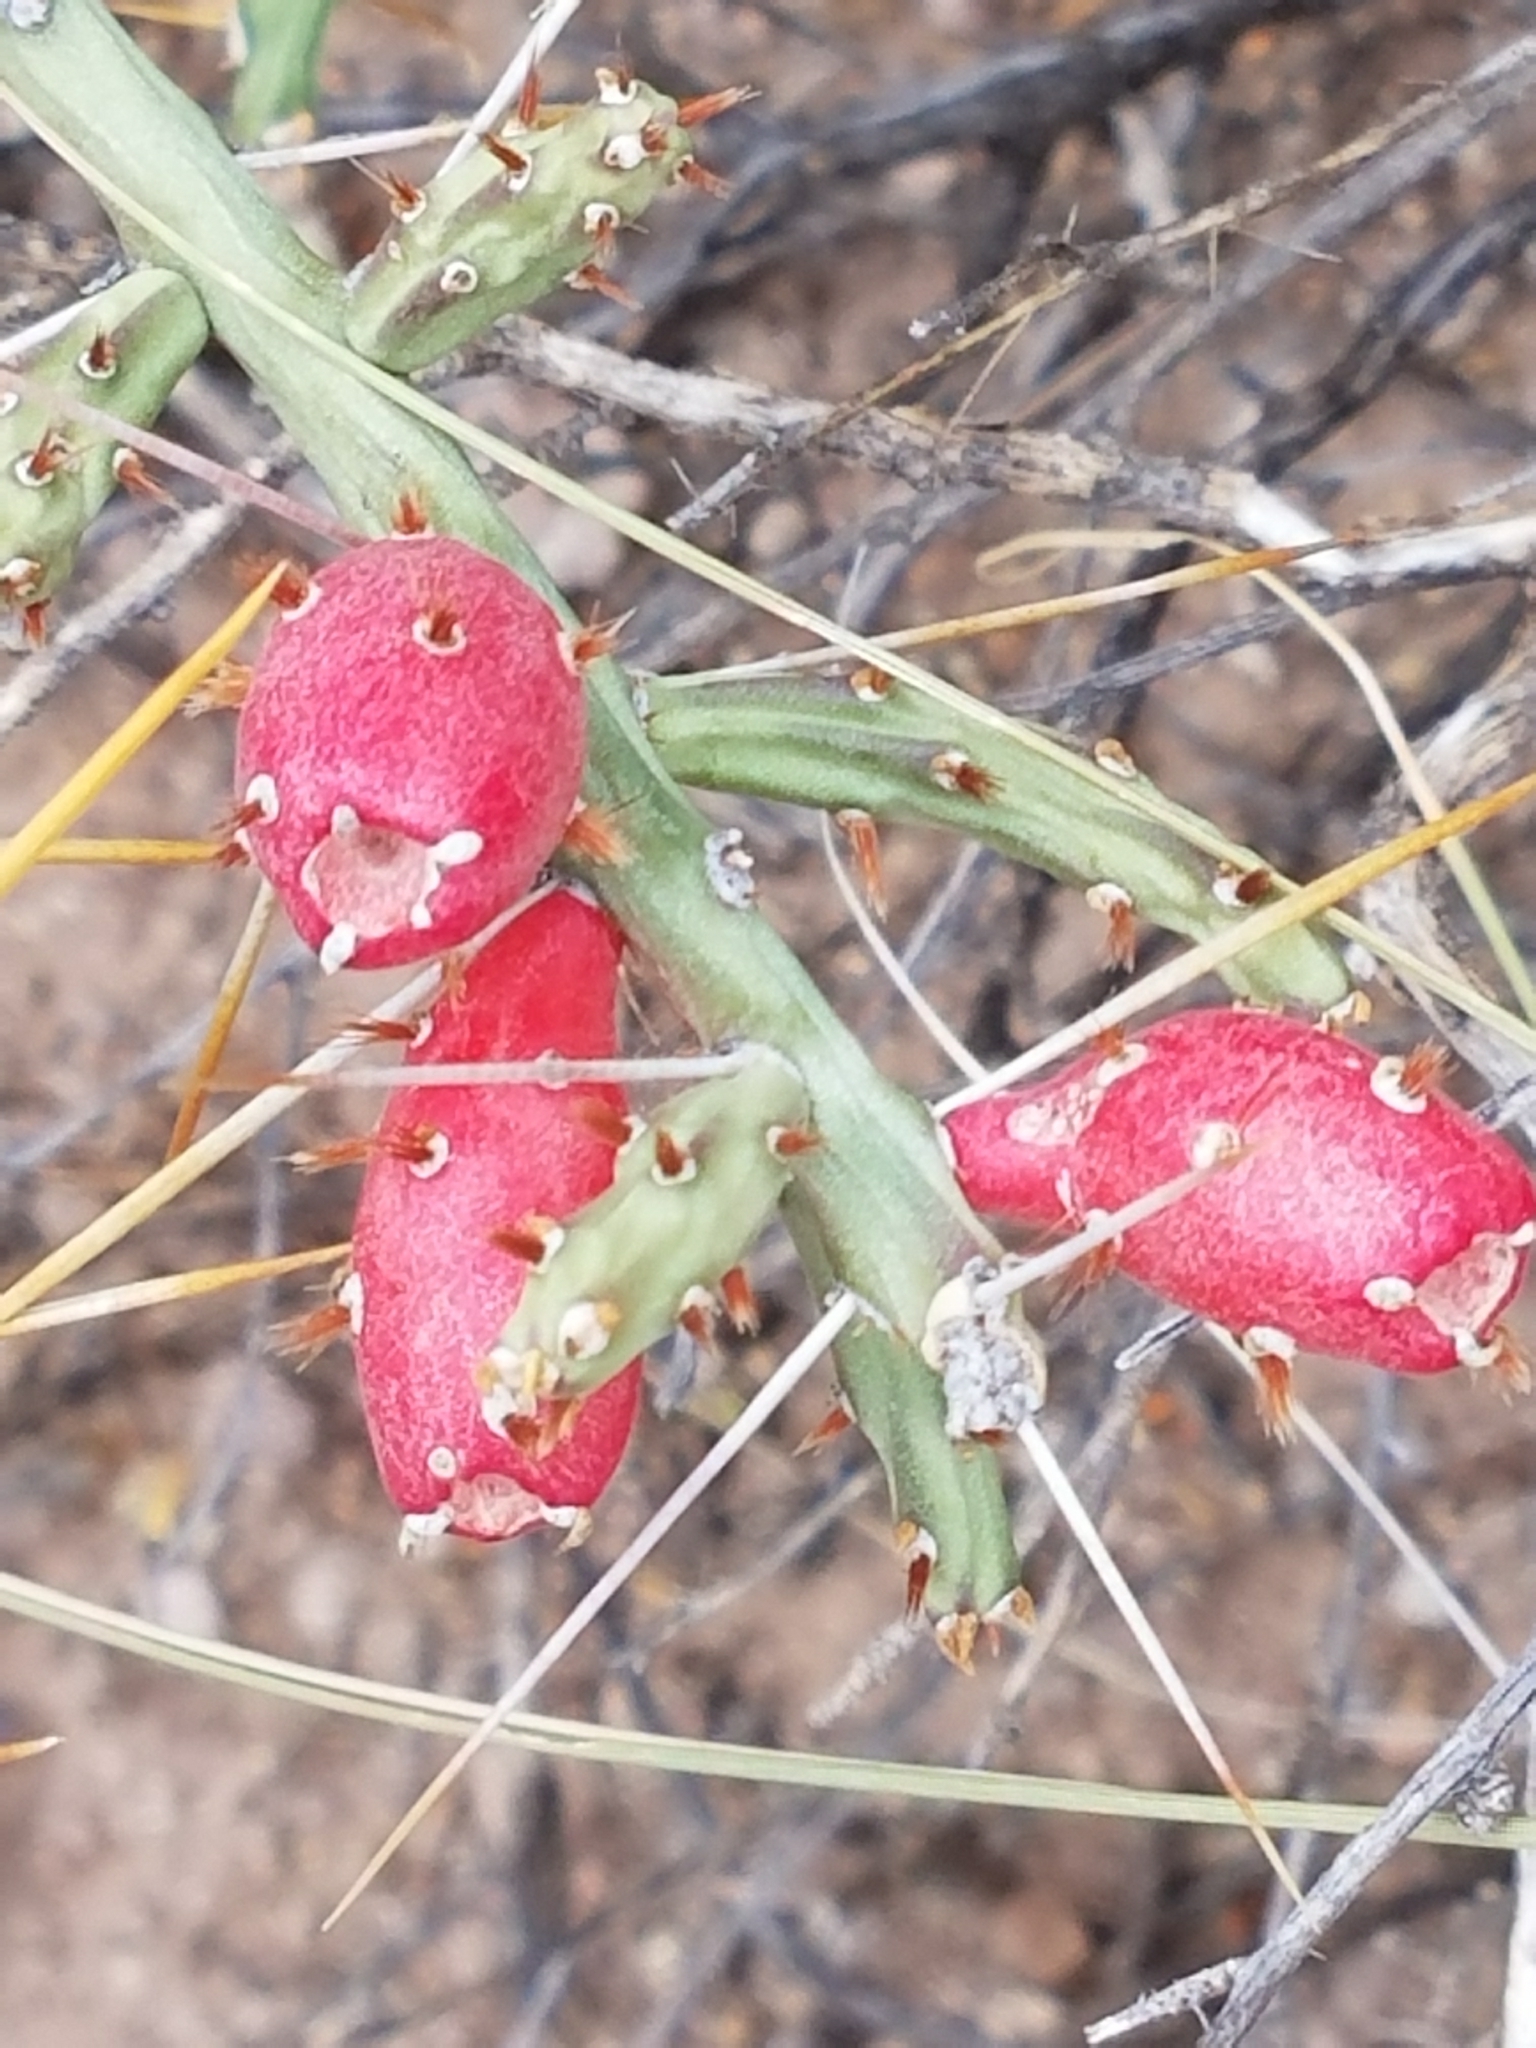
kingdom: Plantae
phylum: Tracheophyta
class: Magnoliopsida
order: Caryophyllales
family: Cactaceae
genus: Cylindropuntia
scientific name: Cylindropuntia leptocaulis
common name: Christmas cactus
